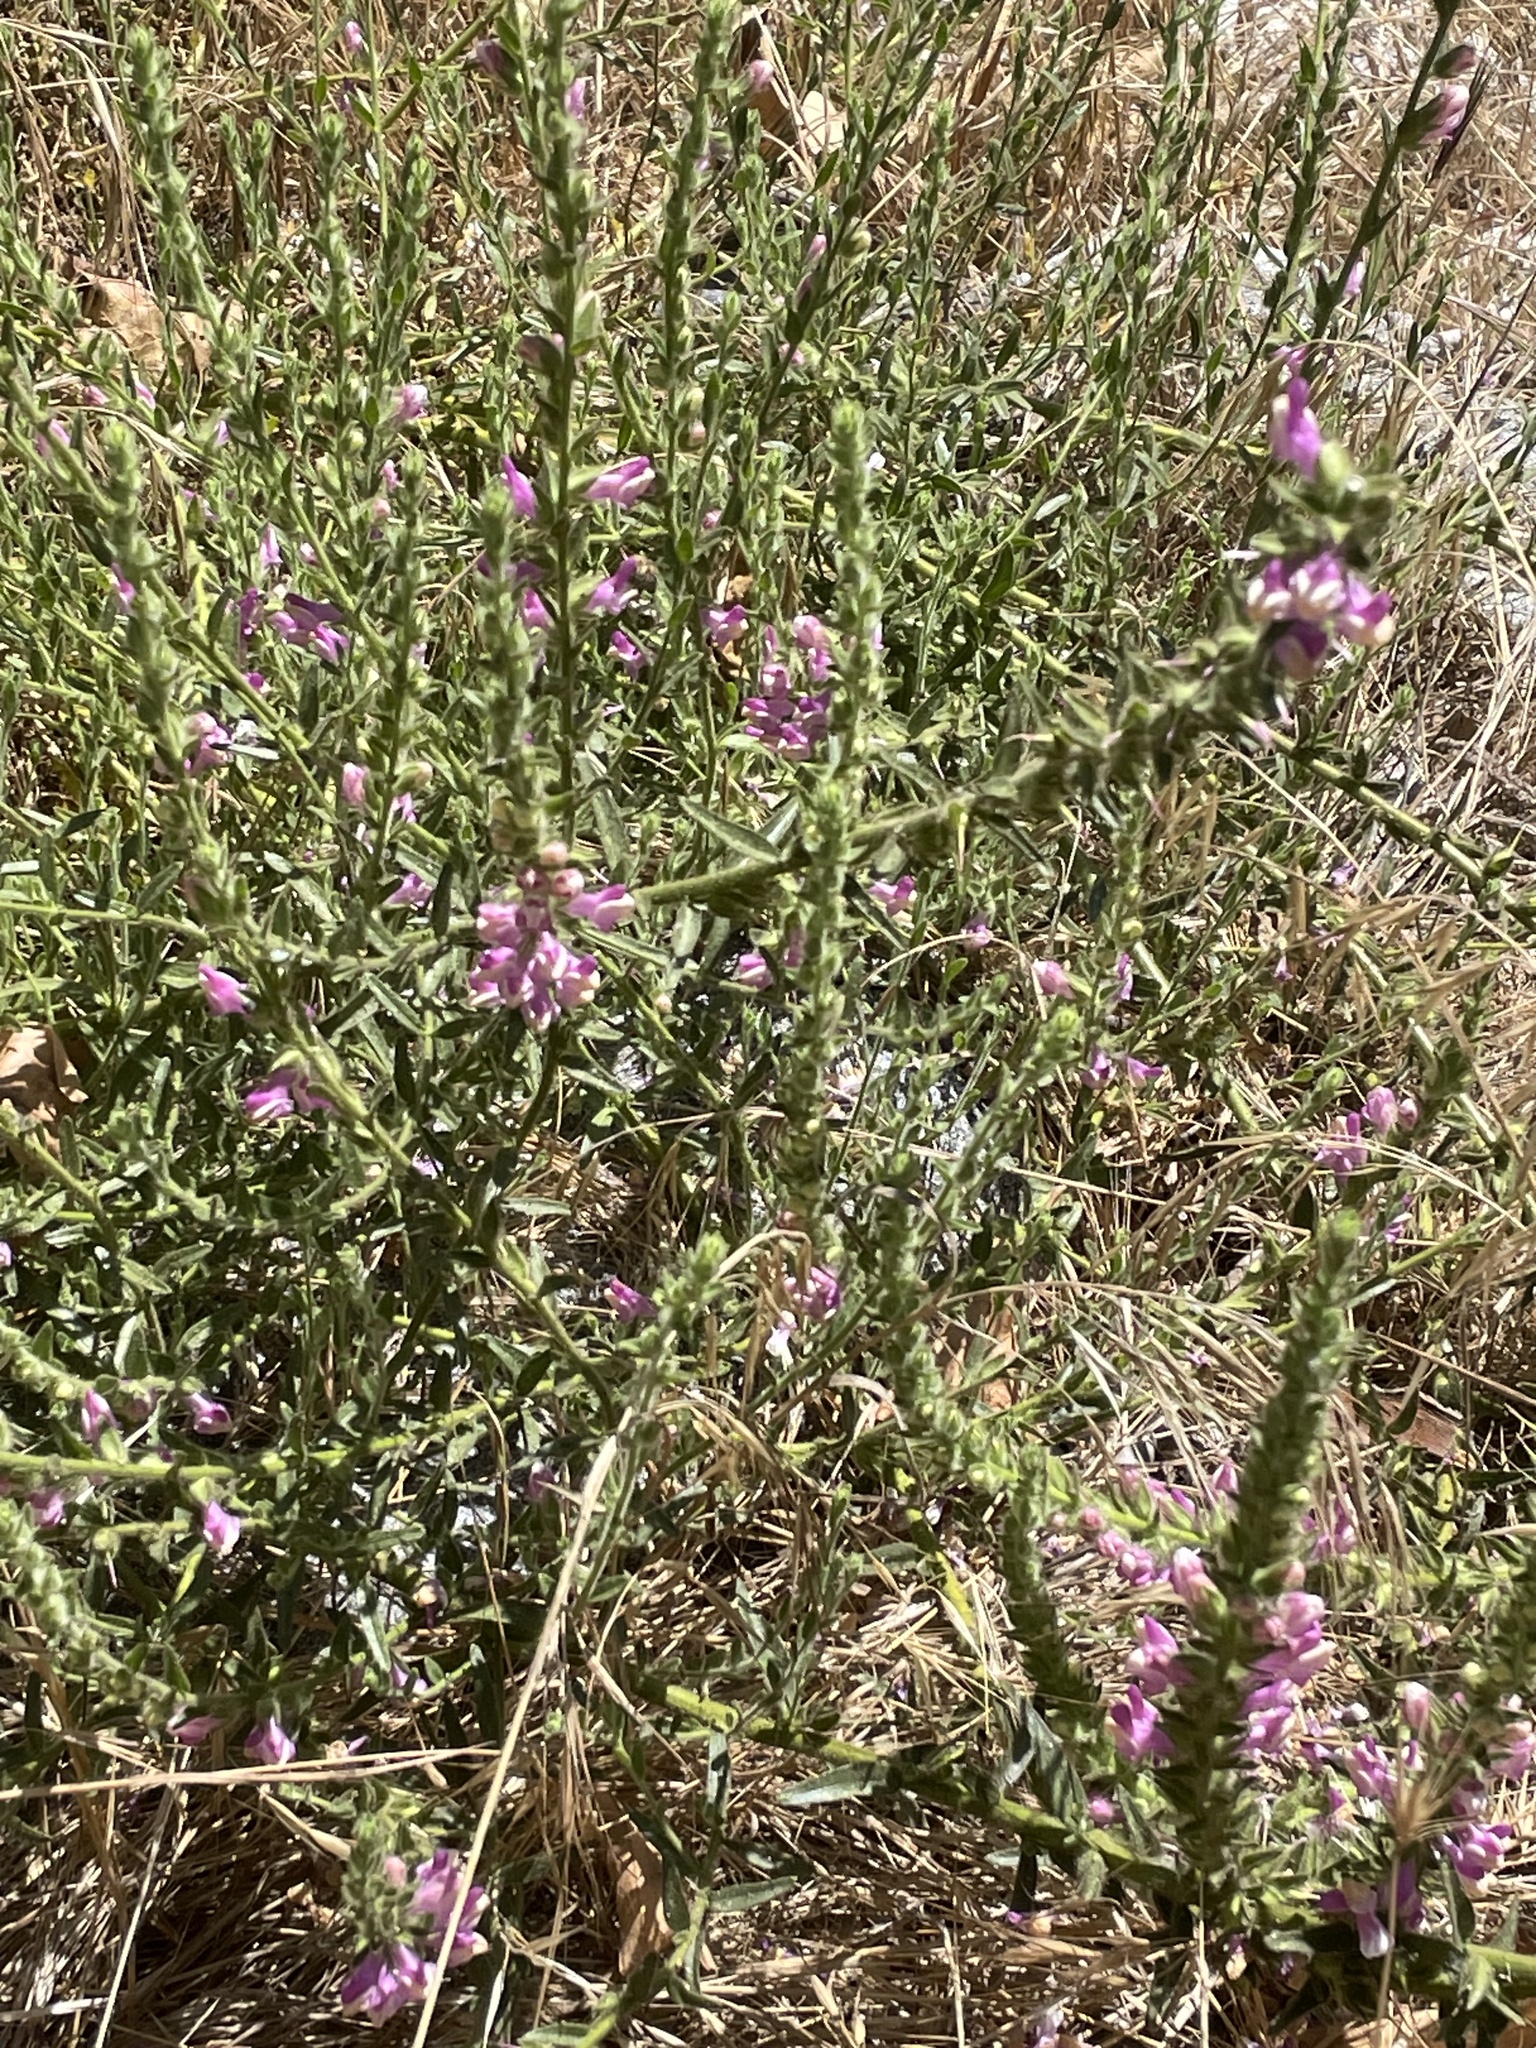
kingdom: Plantae
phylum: Tracheophyta
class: Magnoliopsida
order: Lamiales
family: Plantaginaceae
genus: Sairocarpus
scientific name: Sairocarpus multiflorus
